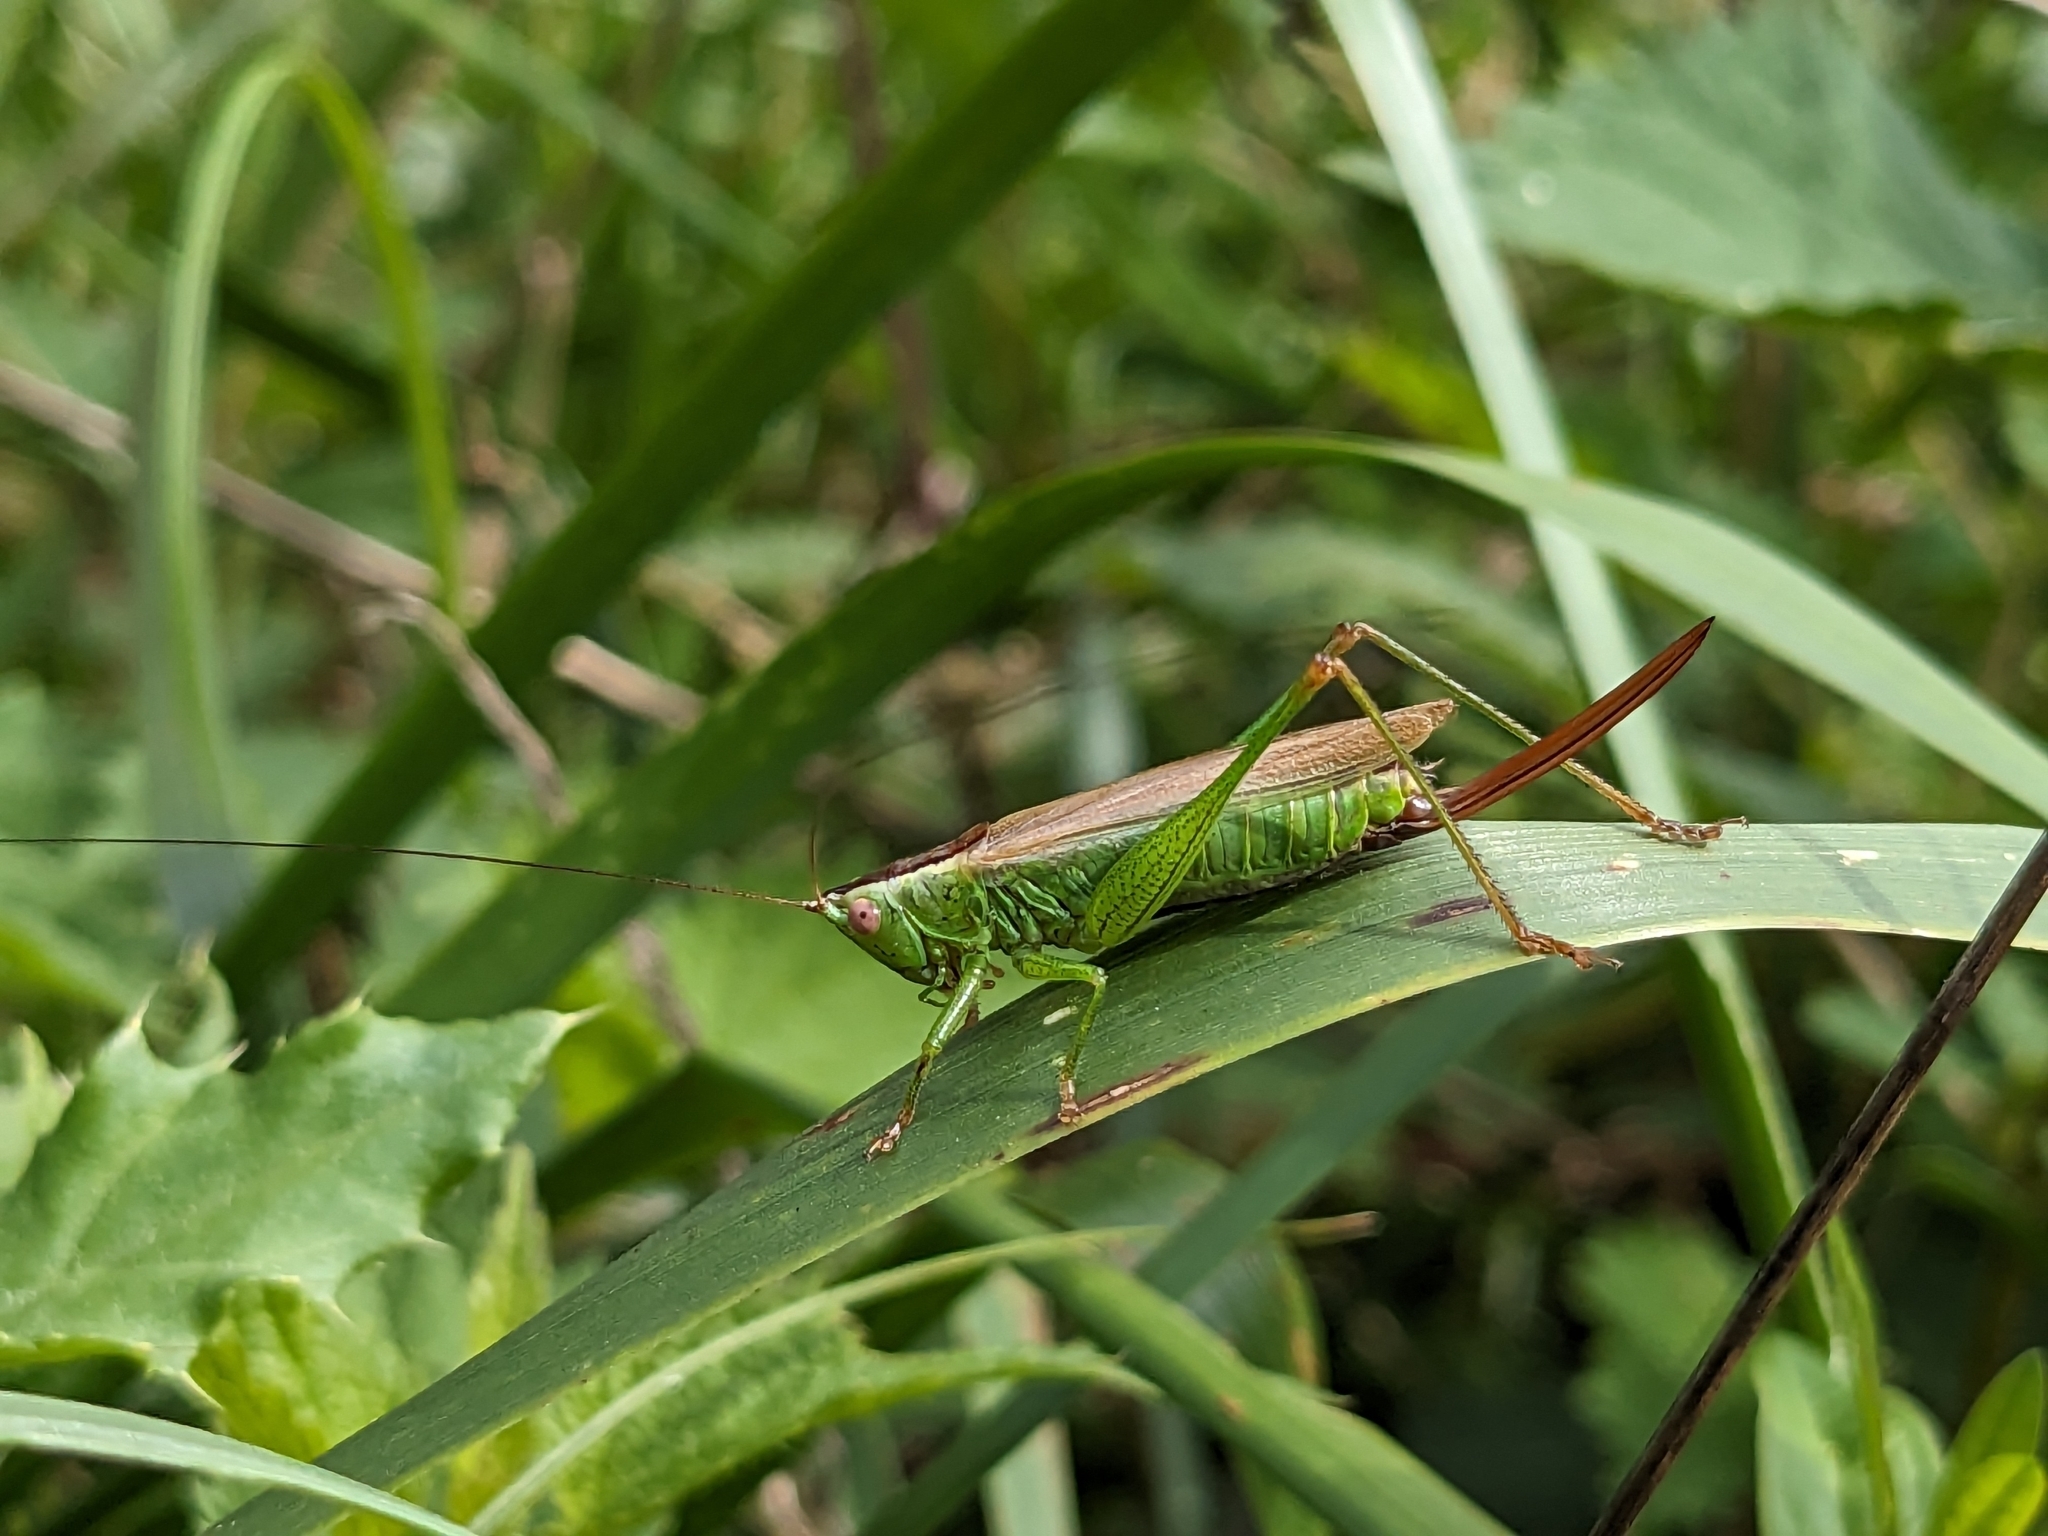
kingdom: Animalia
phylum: Arthropoda
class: Insecta
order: Orthoptera
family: Tettigoniidae
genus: Conocephalus
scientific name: Conocephalus fuscus
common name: Long-winged conehead
